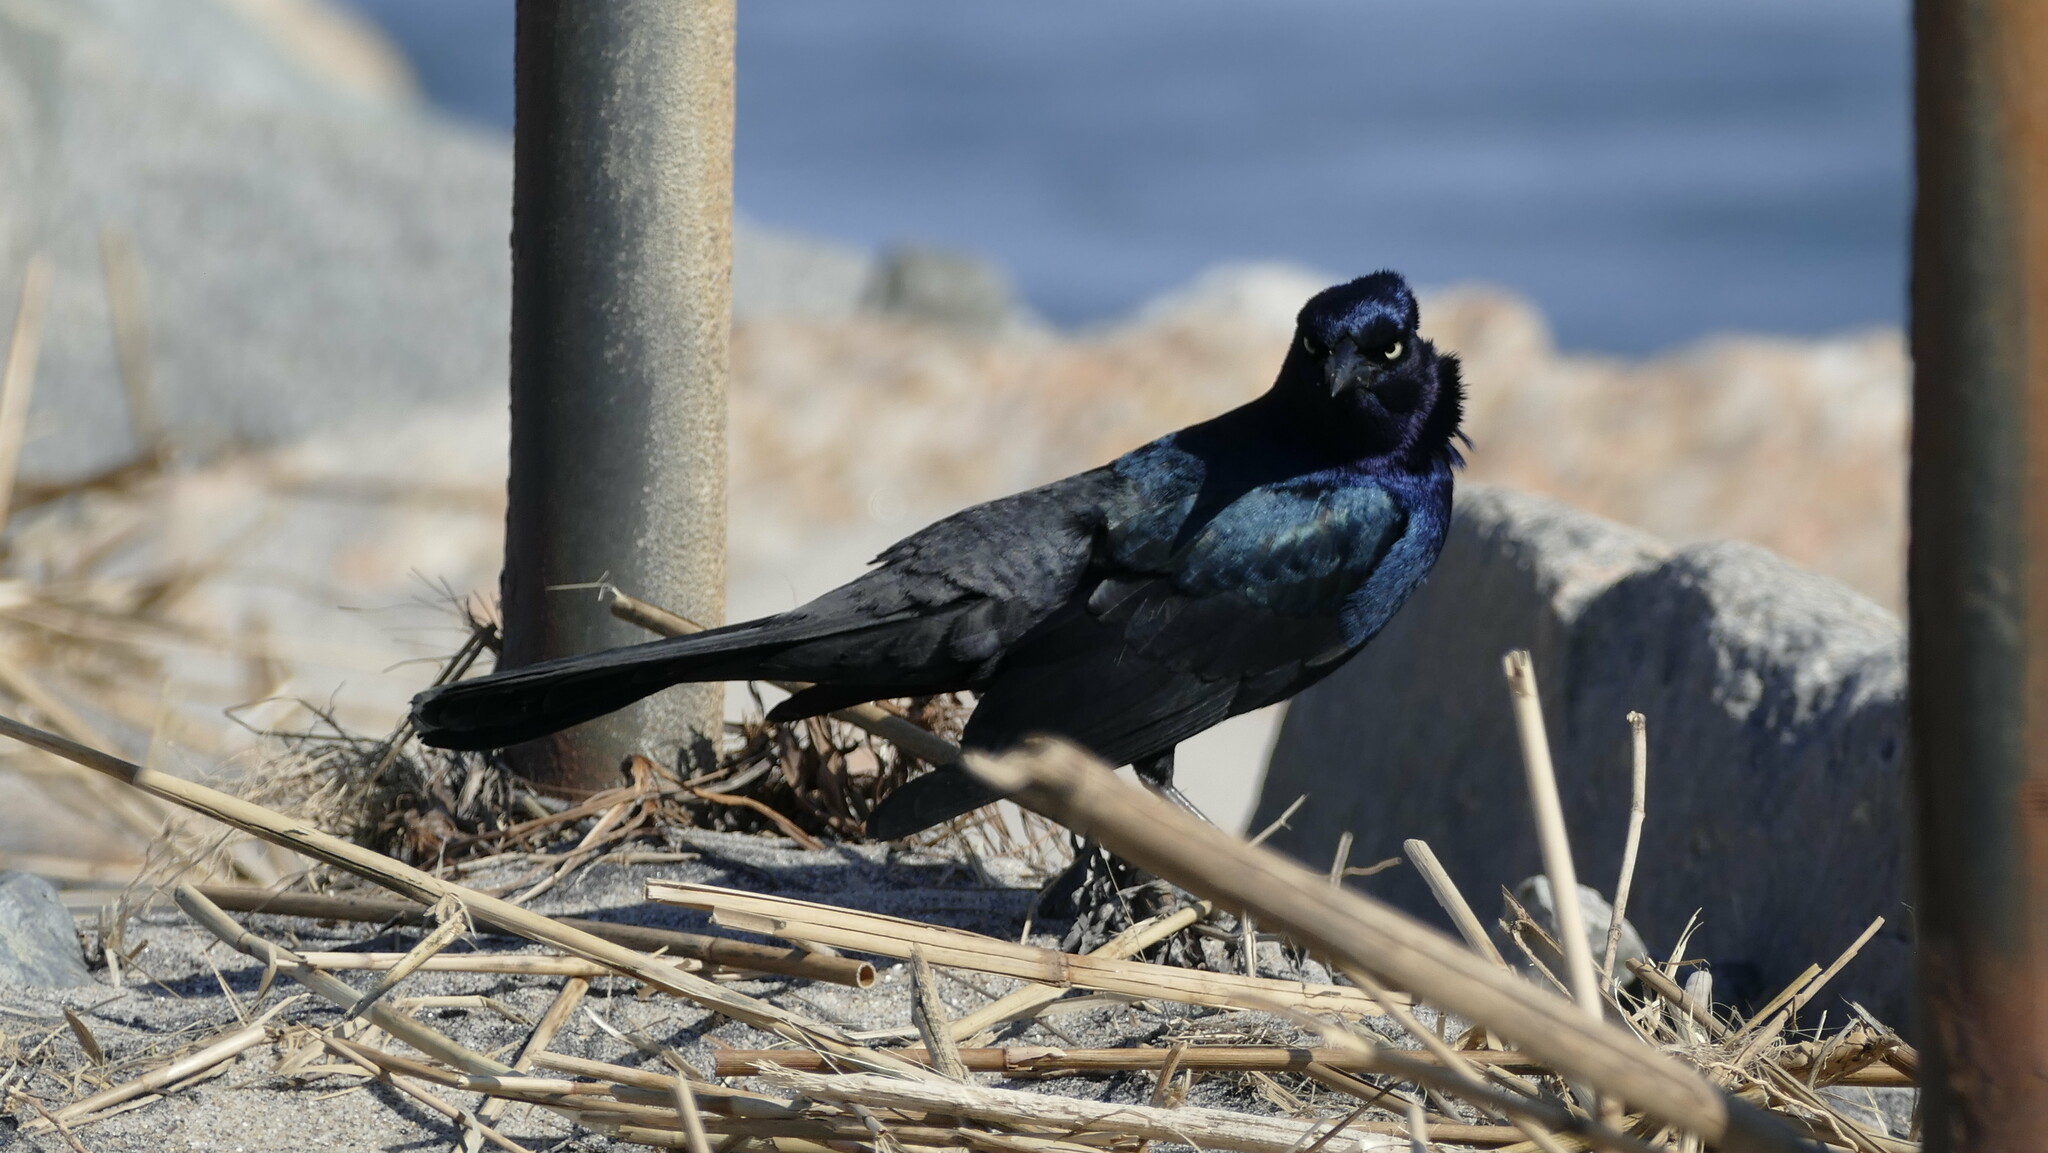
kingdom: Animalia
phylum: Chordata
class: Aves
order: Passeriformes
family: Icteridae
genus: Quiscalus
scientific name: Quiscalus major
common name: Boat-tailed grackle
